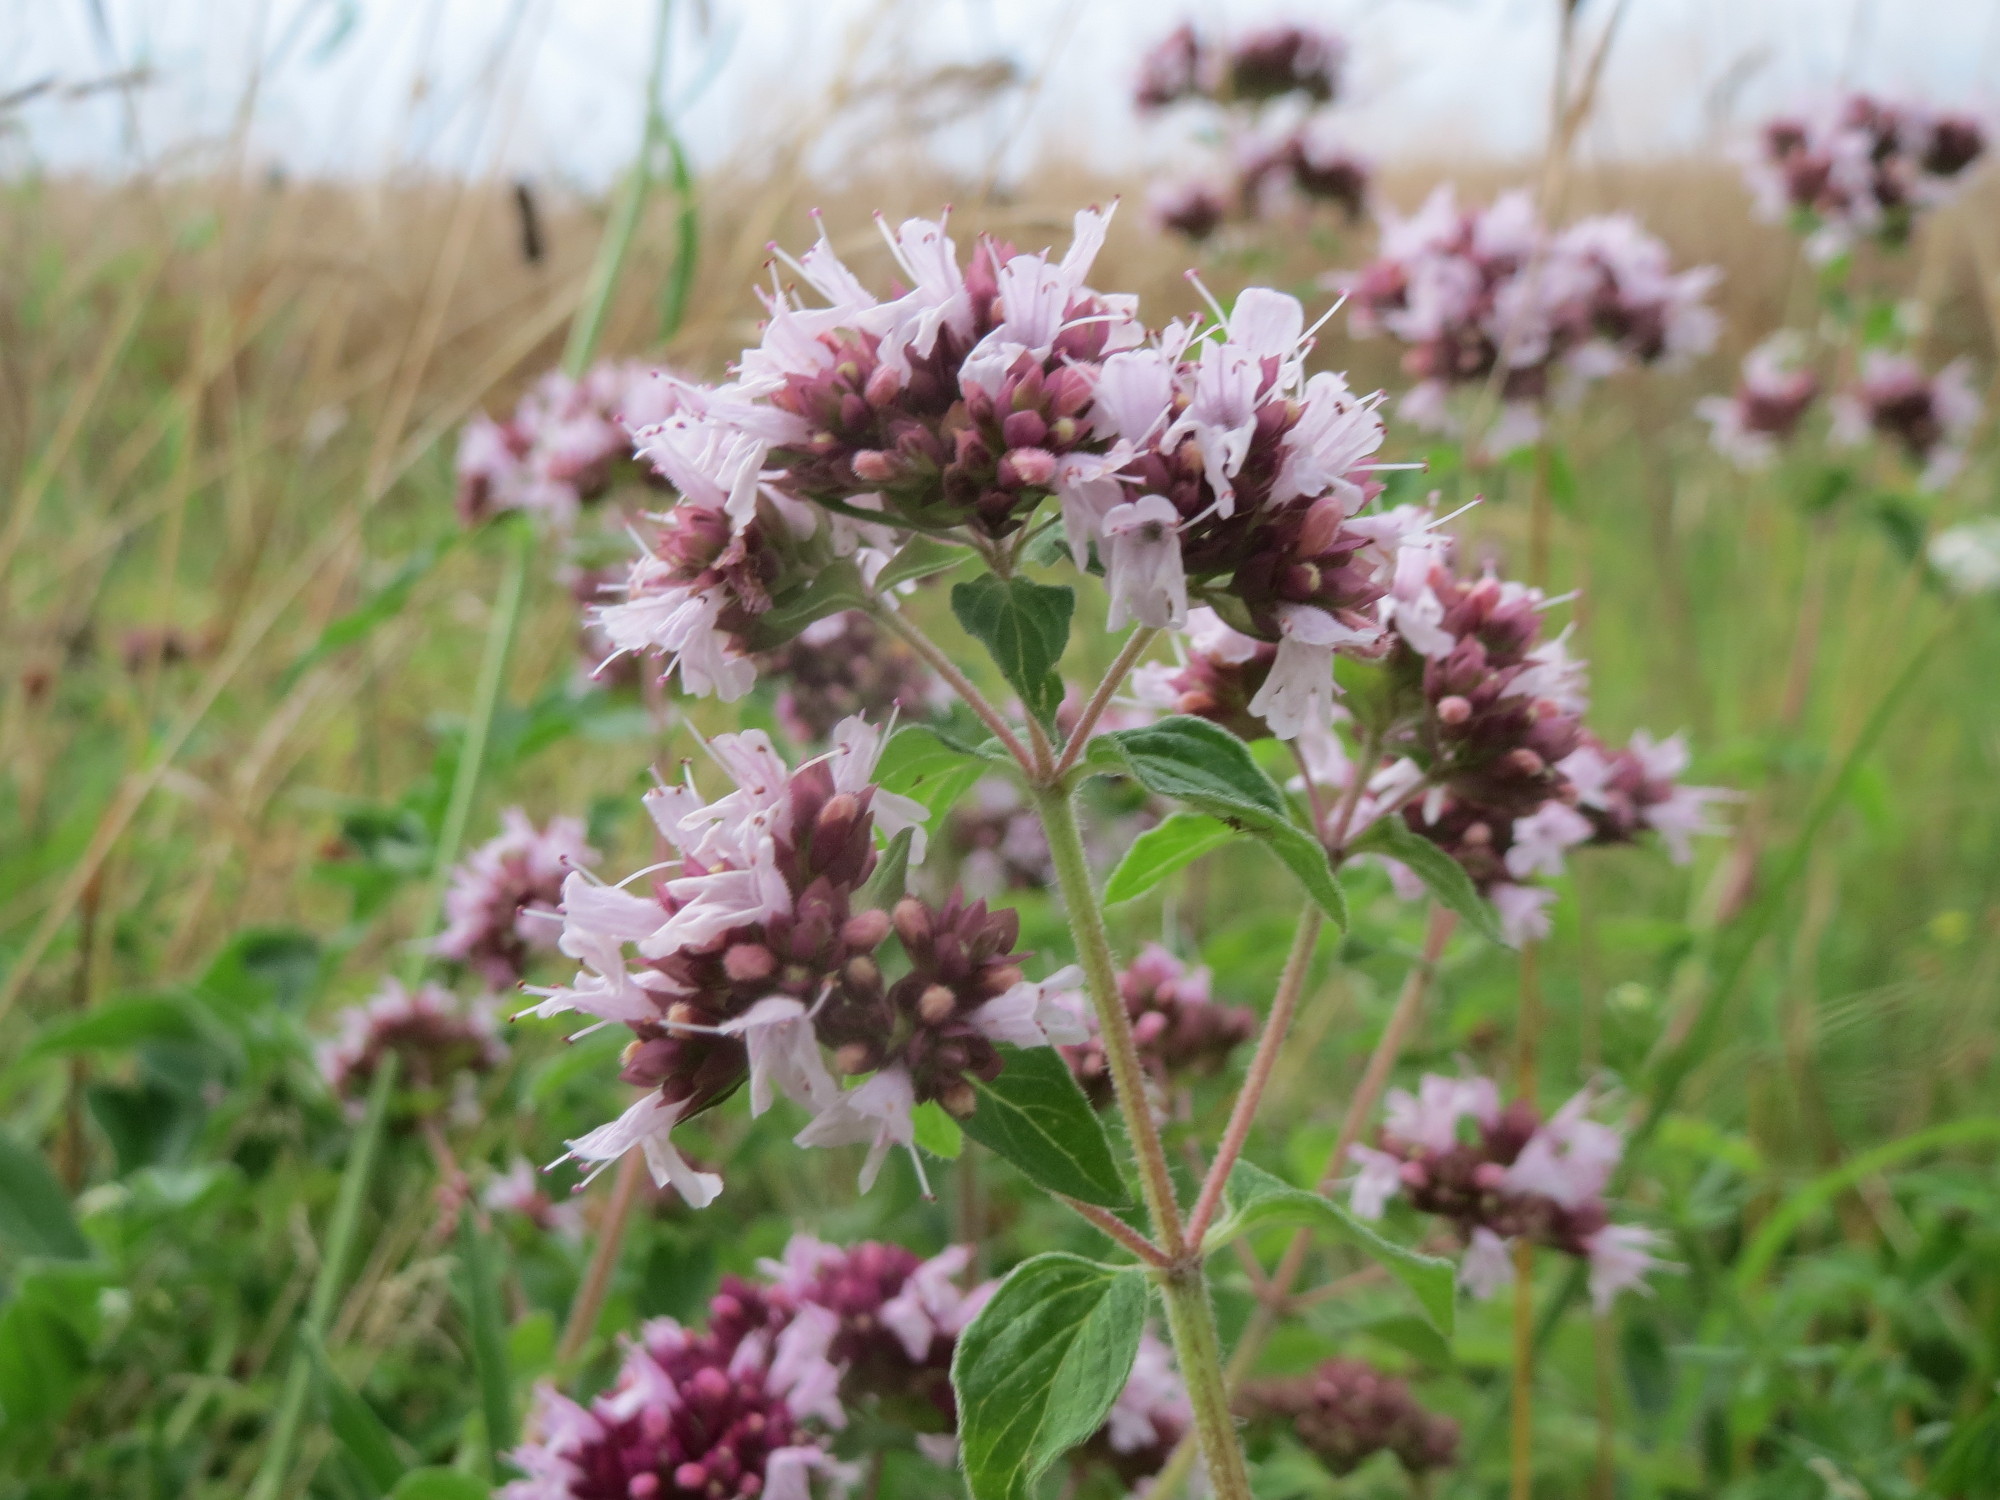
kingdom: Plantae
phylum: Tracheophyta
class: Magnoliopsida
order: Lamiales
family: Lamiaceae
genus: Origanum
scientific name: Origanum vulgare
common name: Wild marjoram
